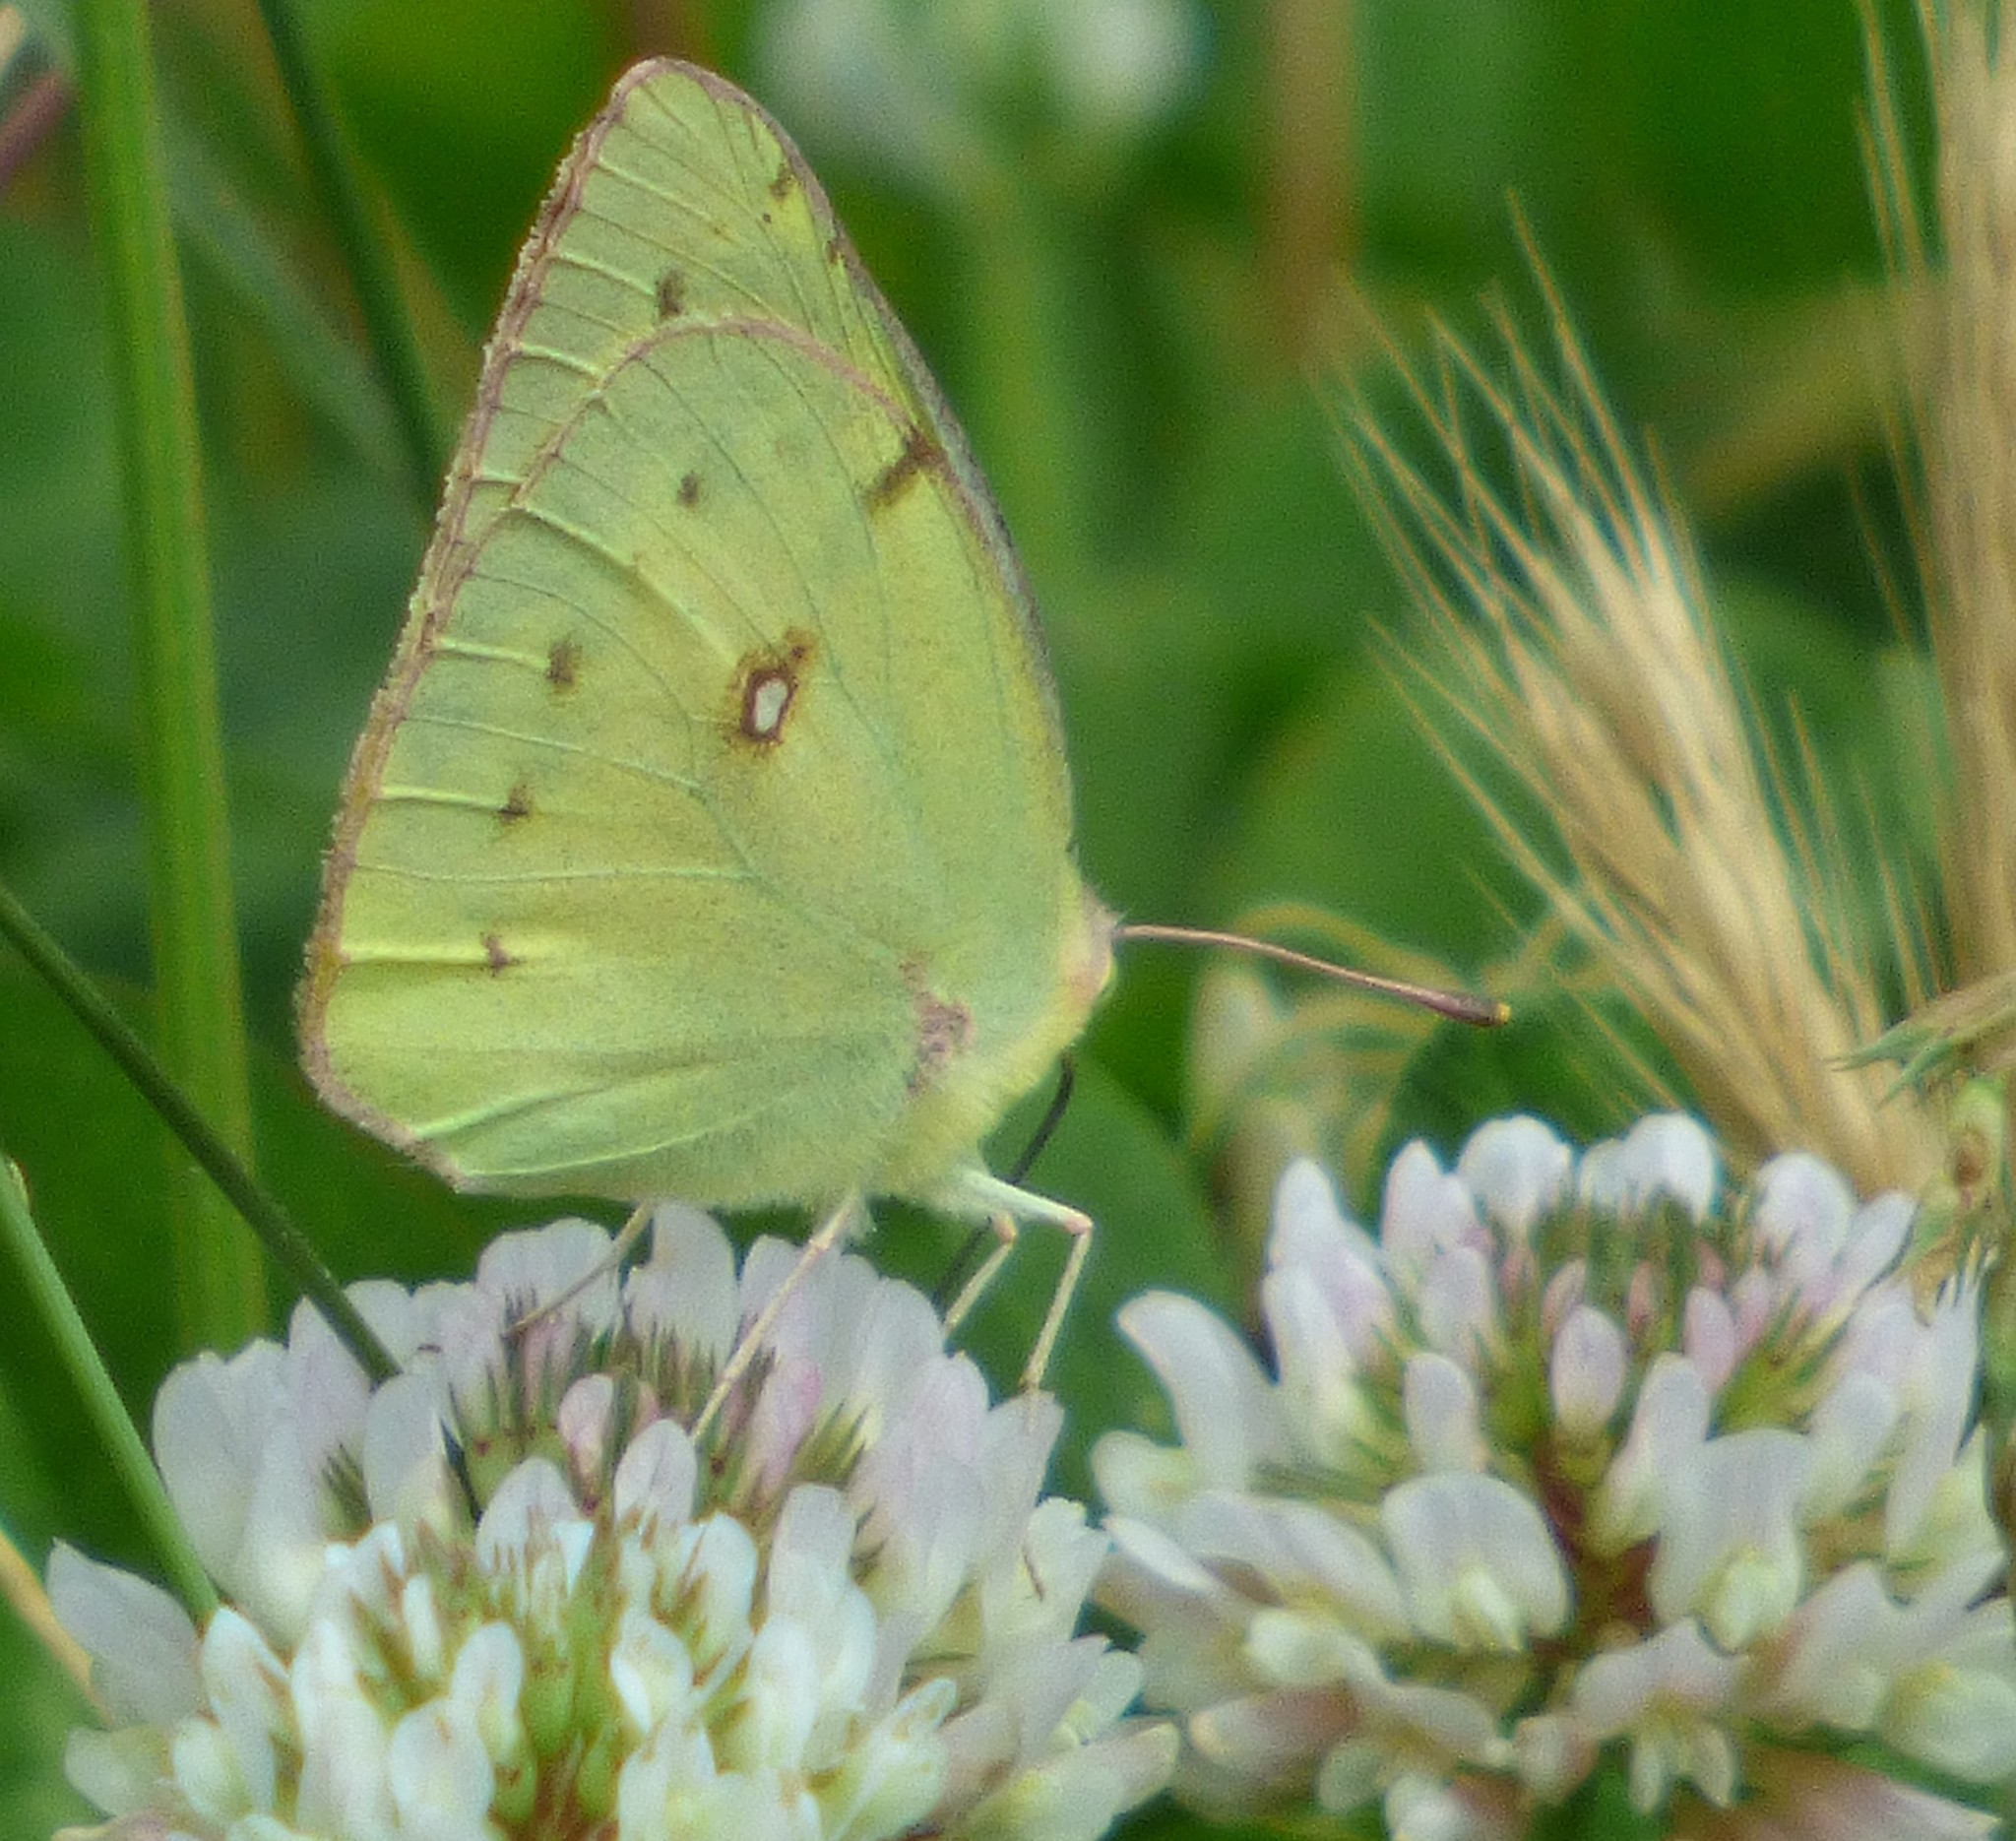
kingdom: Animalia
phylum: Arthropoda
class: Insecta
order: Lepidoptera
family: Pieridae
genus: Colias
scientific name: Colias
